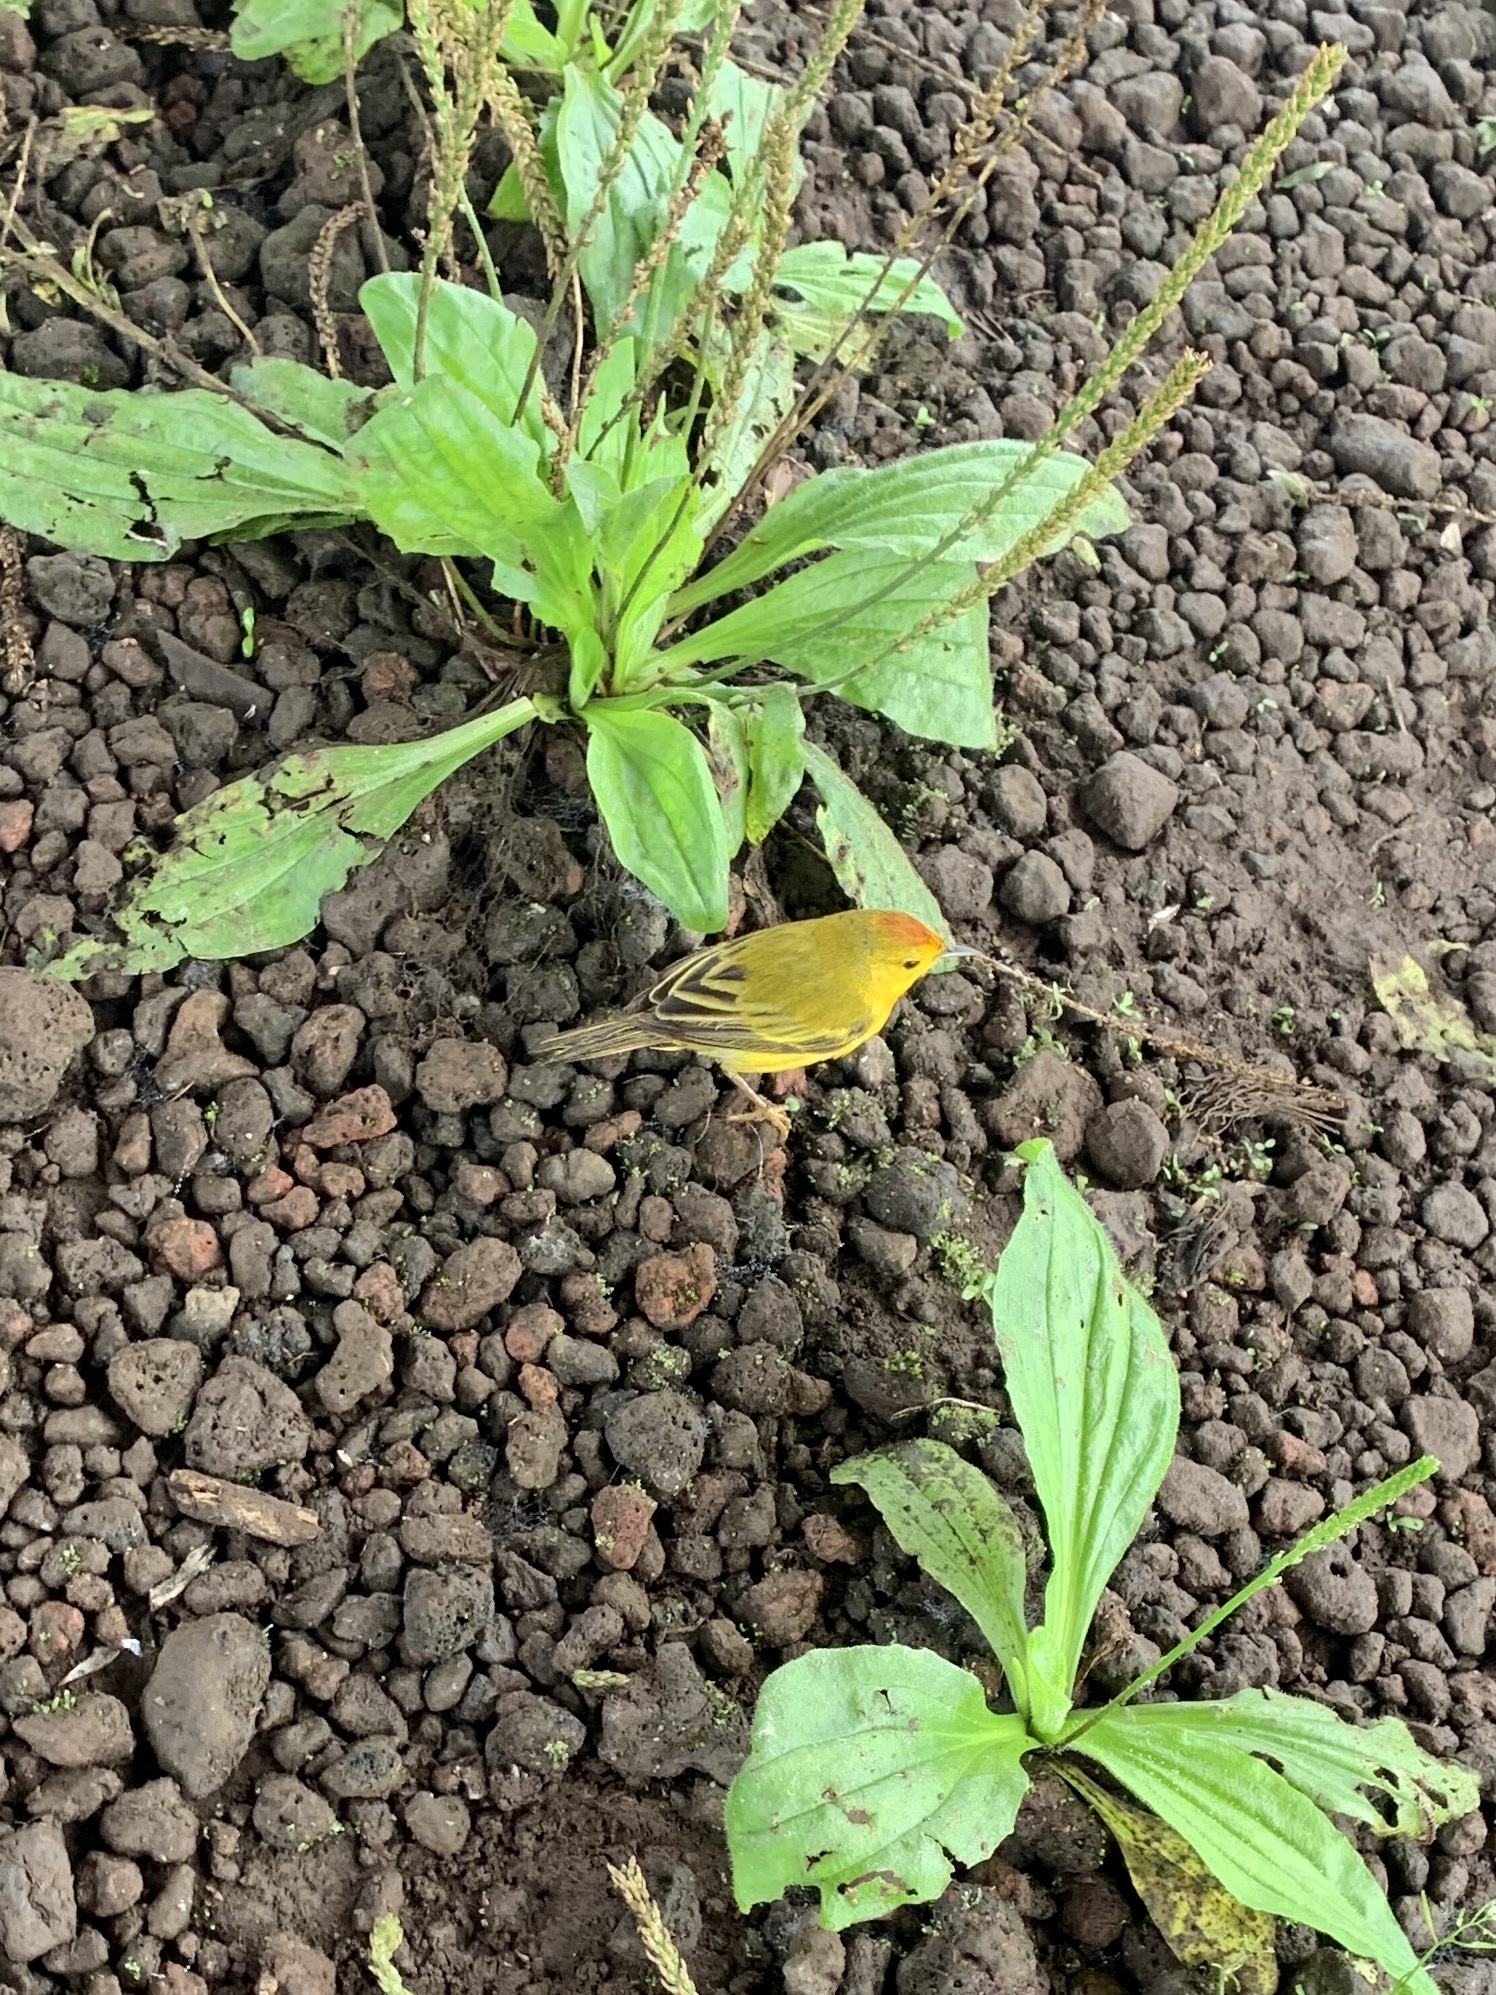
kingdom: Animalia
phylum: Chordata
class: Aves
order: Passeriformes
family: Parulidae
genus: Setophaga
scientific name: Setophaga petechia
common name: Yellow warbler
